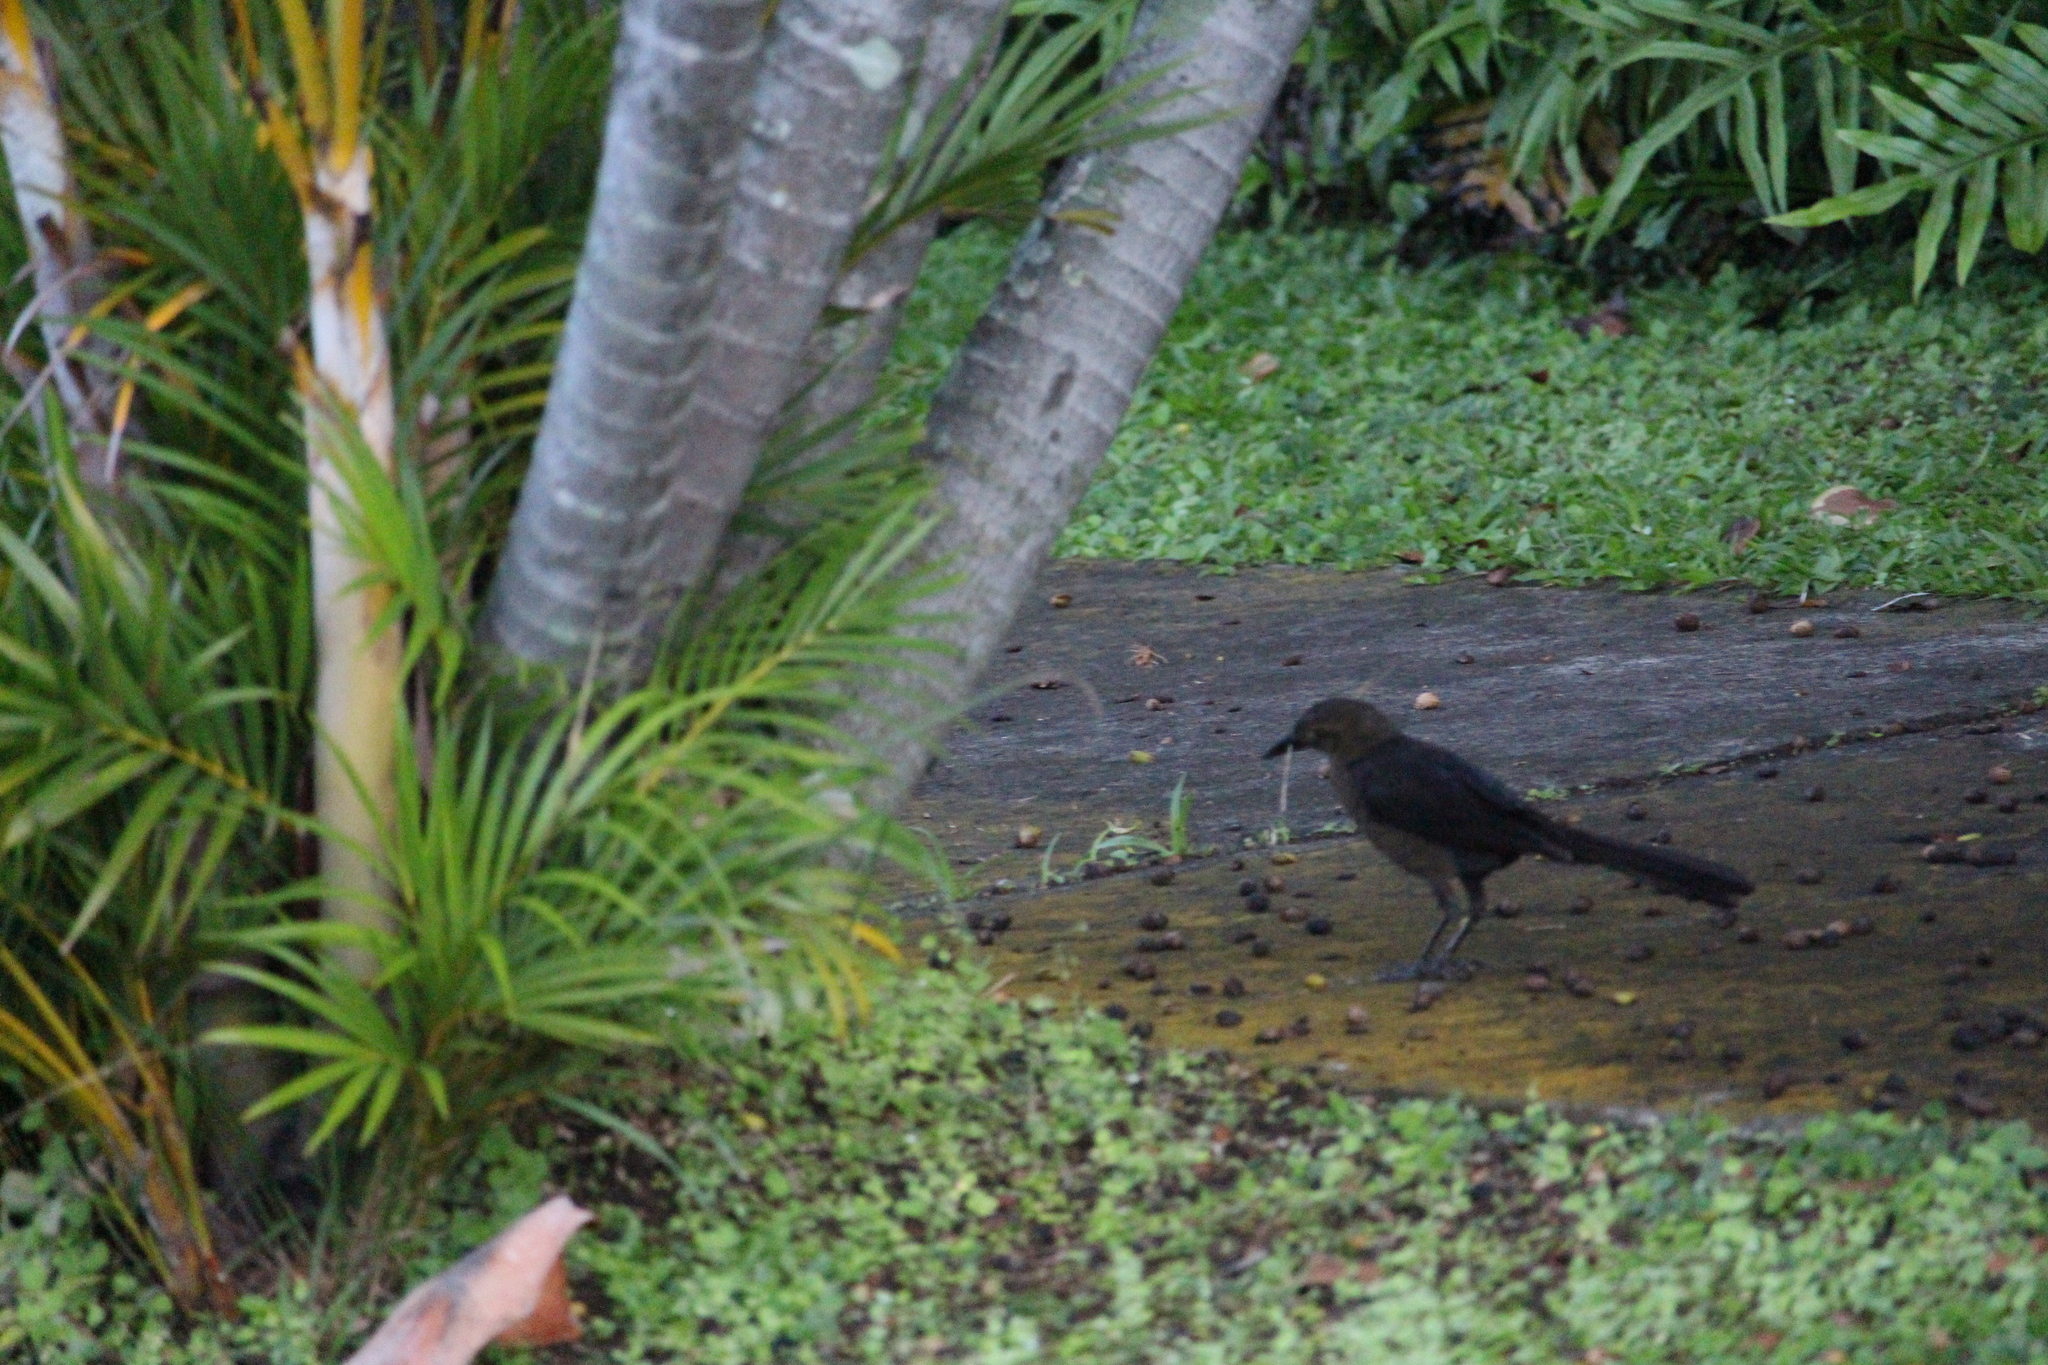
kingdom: Animalia
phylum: Chordata
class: Aves
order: Passeriformes
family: Icteridae
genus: Quiscalus
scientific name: Quiscalus mexicanus
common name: Great-tailed grackle
